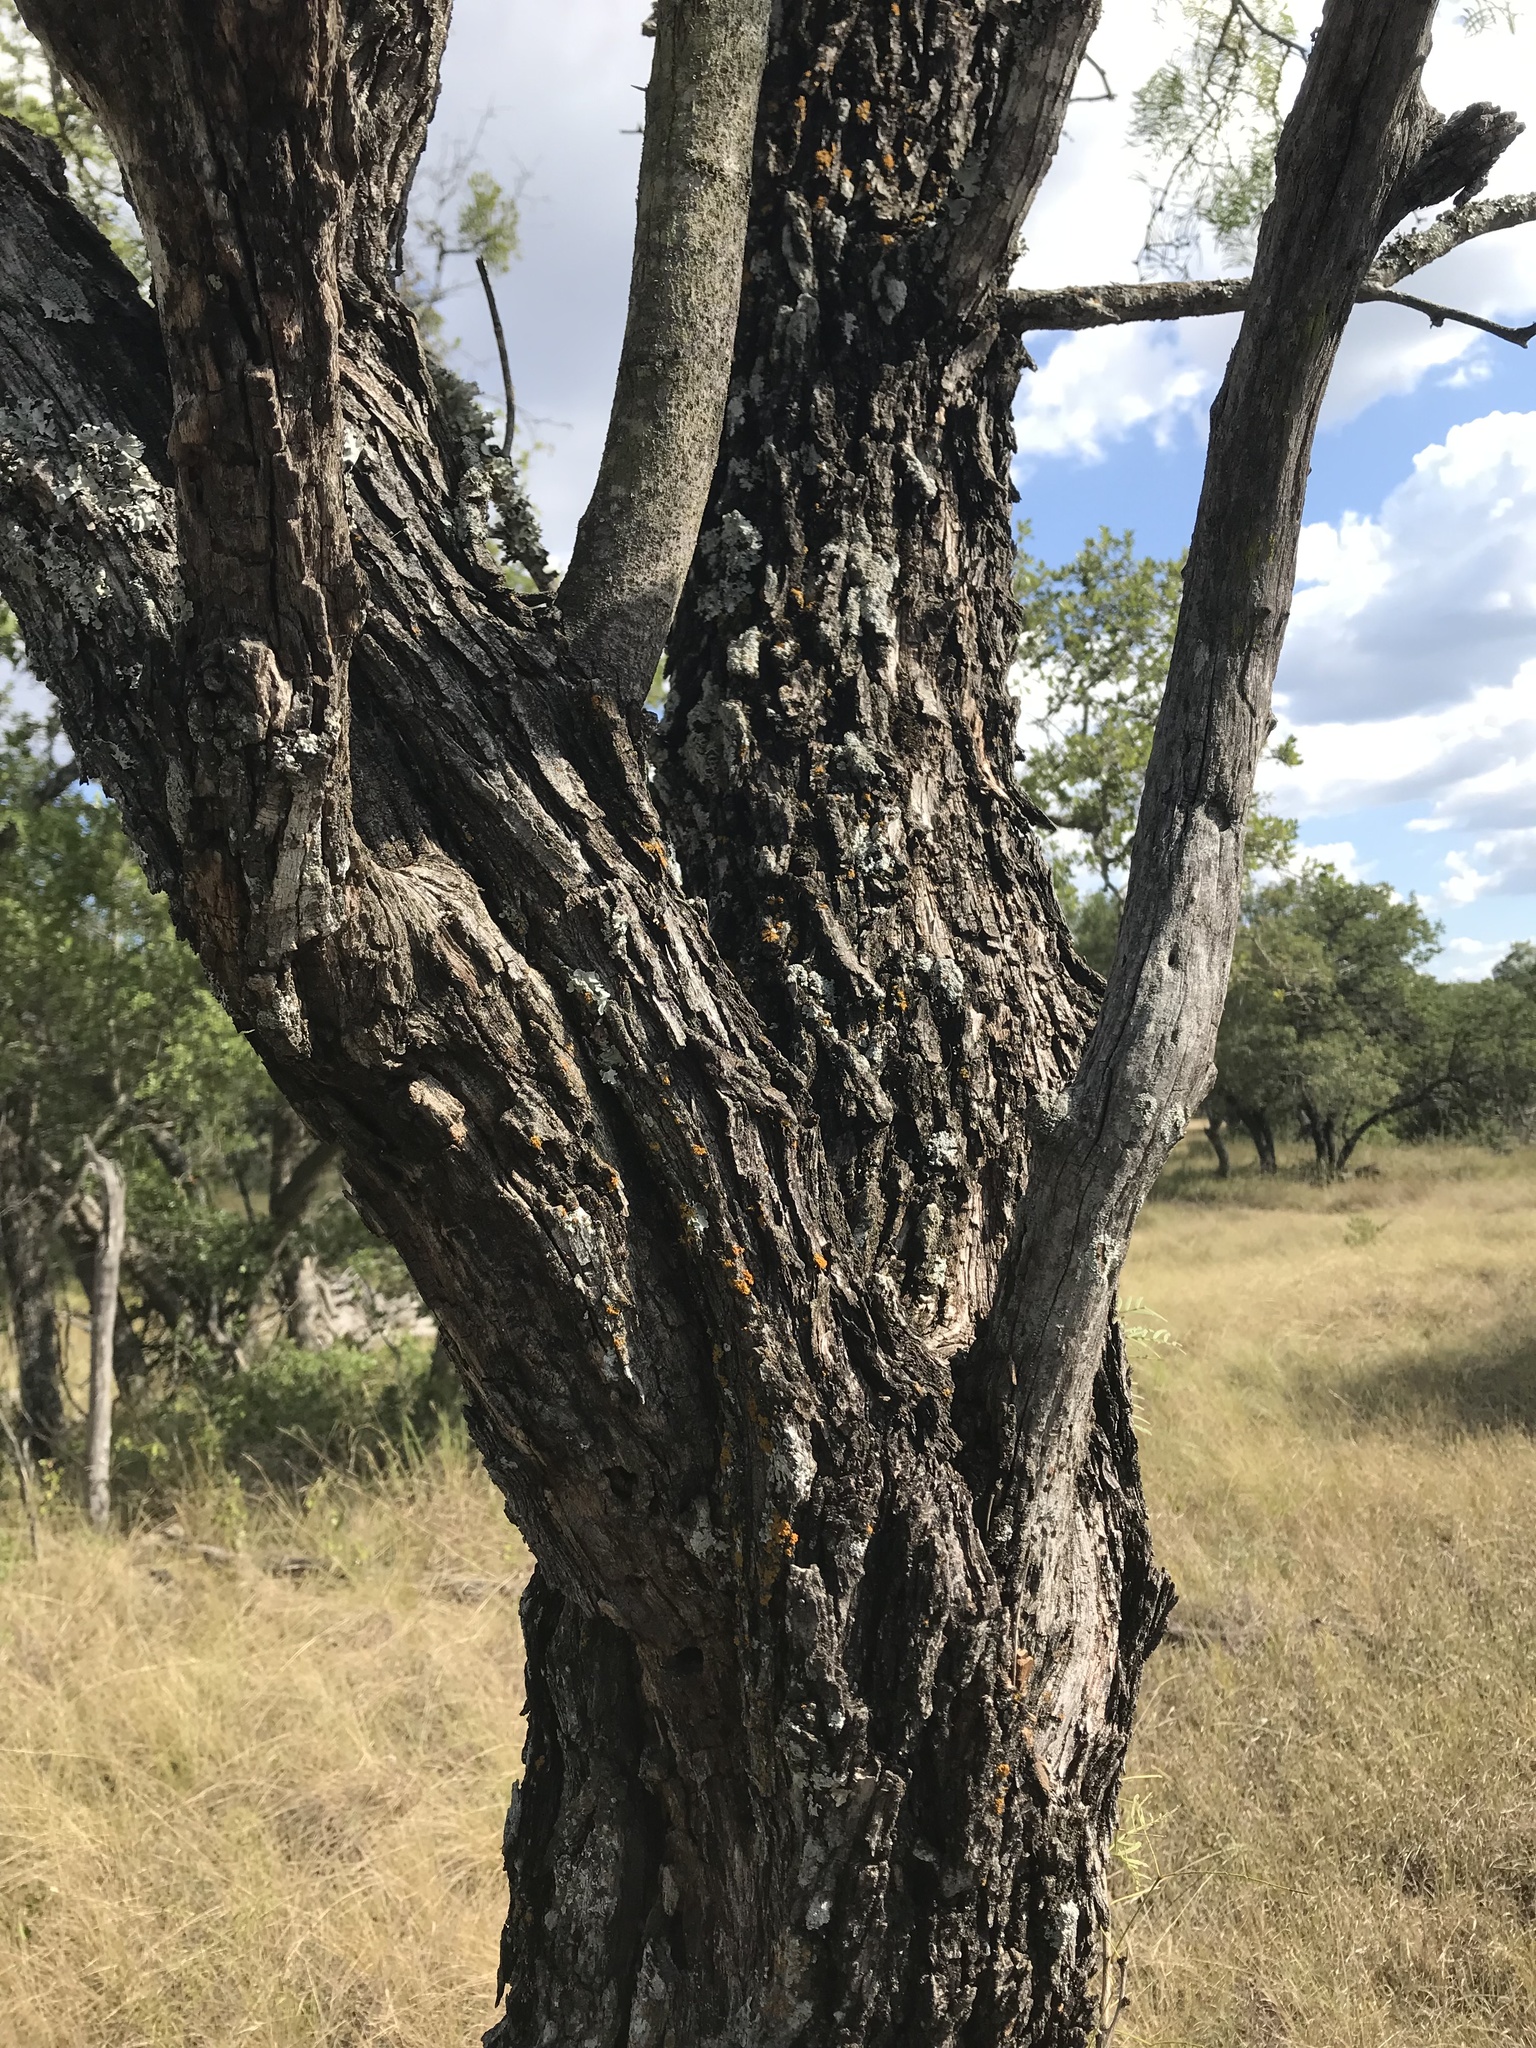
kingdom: Plantae
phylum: Tracheophyta
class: Magnoliopsida
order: Fabales
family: Fabaceae
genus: Prosopis
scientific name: Prosopis glandulosa
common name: Honey mesquite
